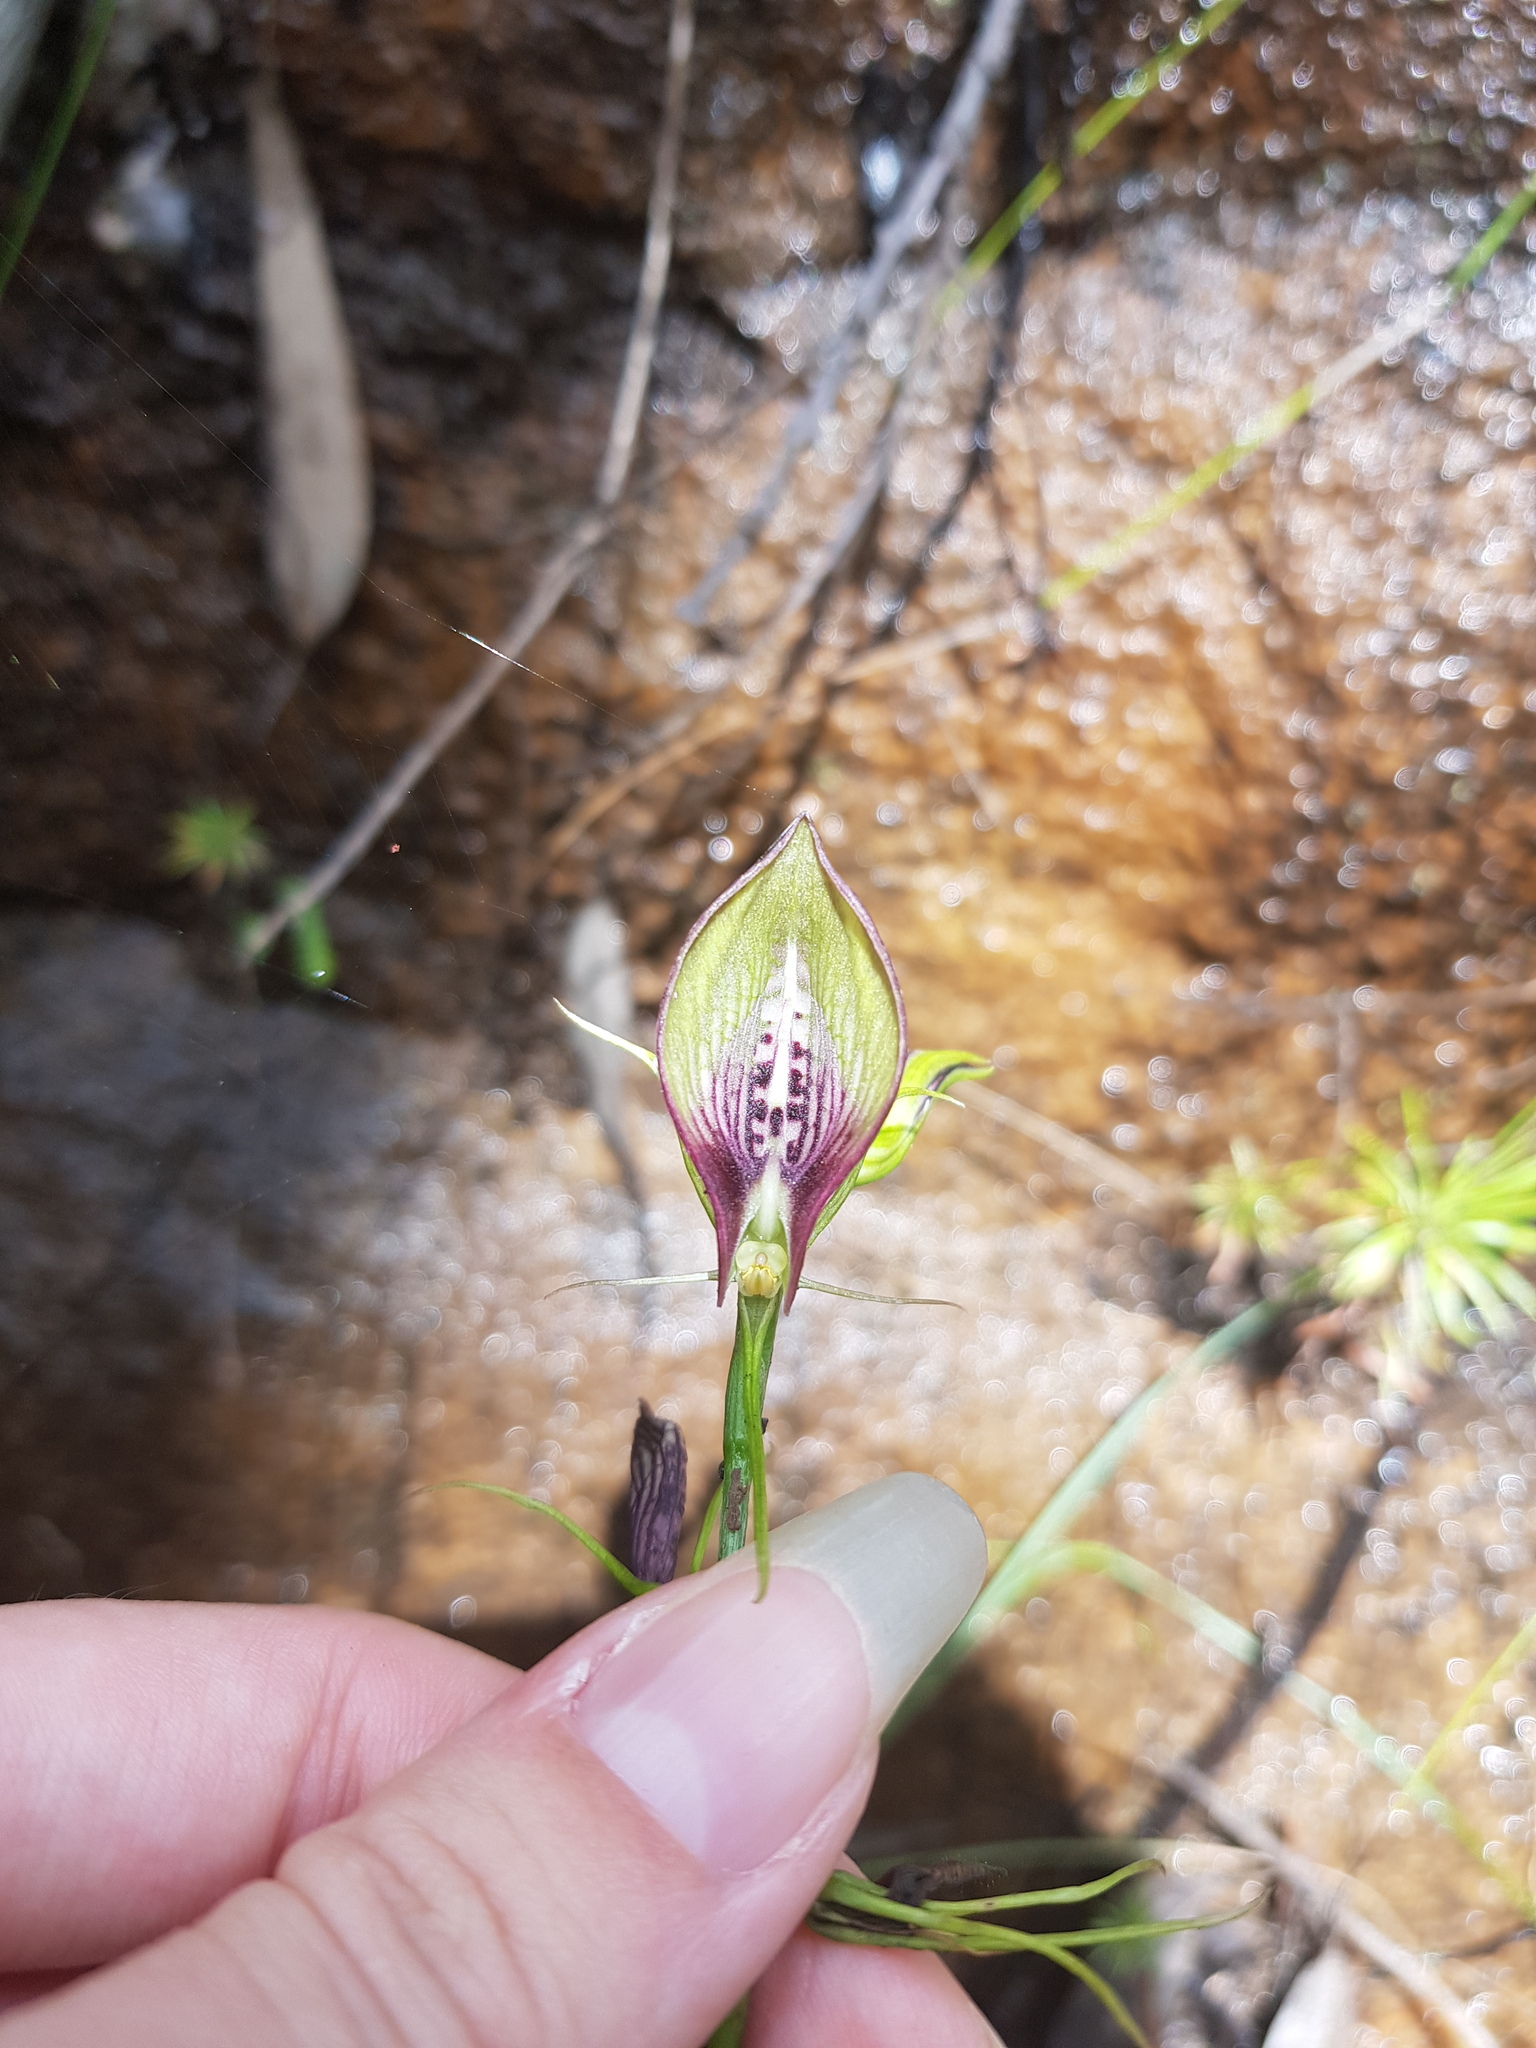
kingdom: Plantae
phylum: Tracheophyta
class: Liliopsida
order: Asparagales
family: Orchidaceae
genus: Cryptostylis
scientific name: Cryptostylis erecta
